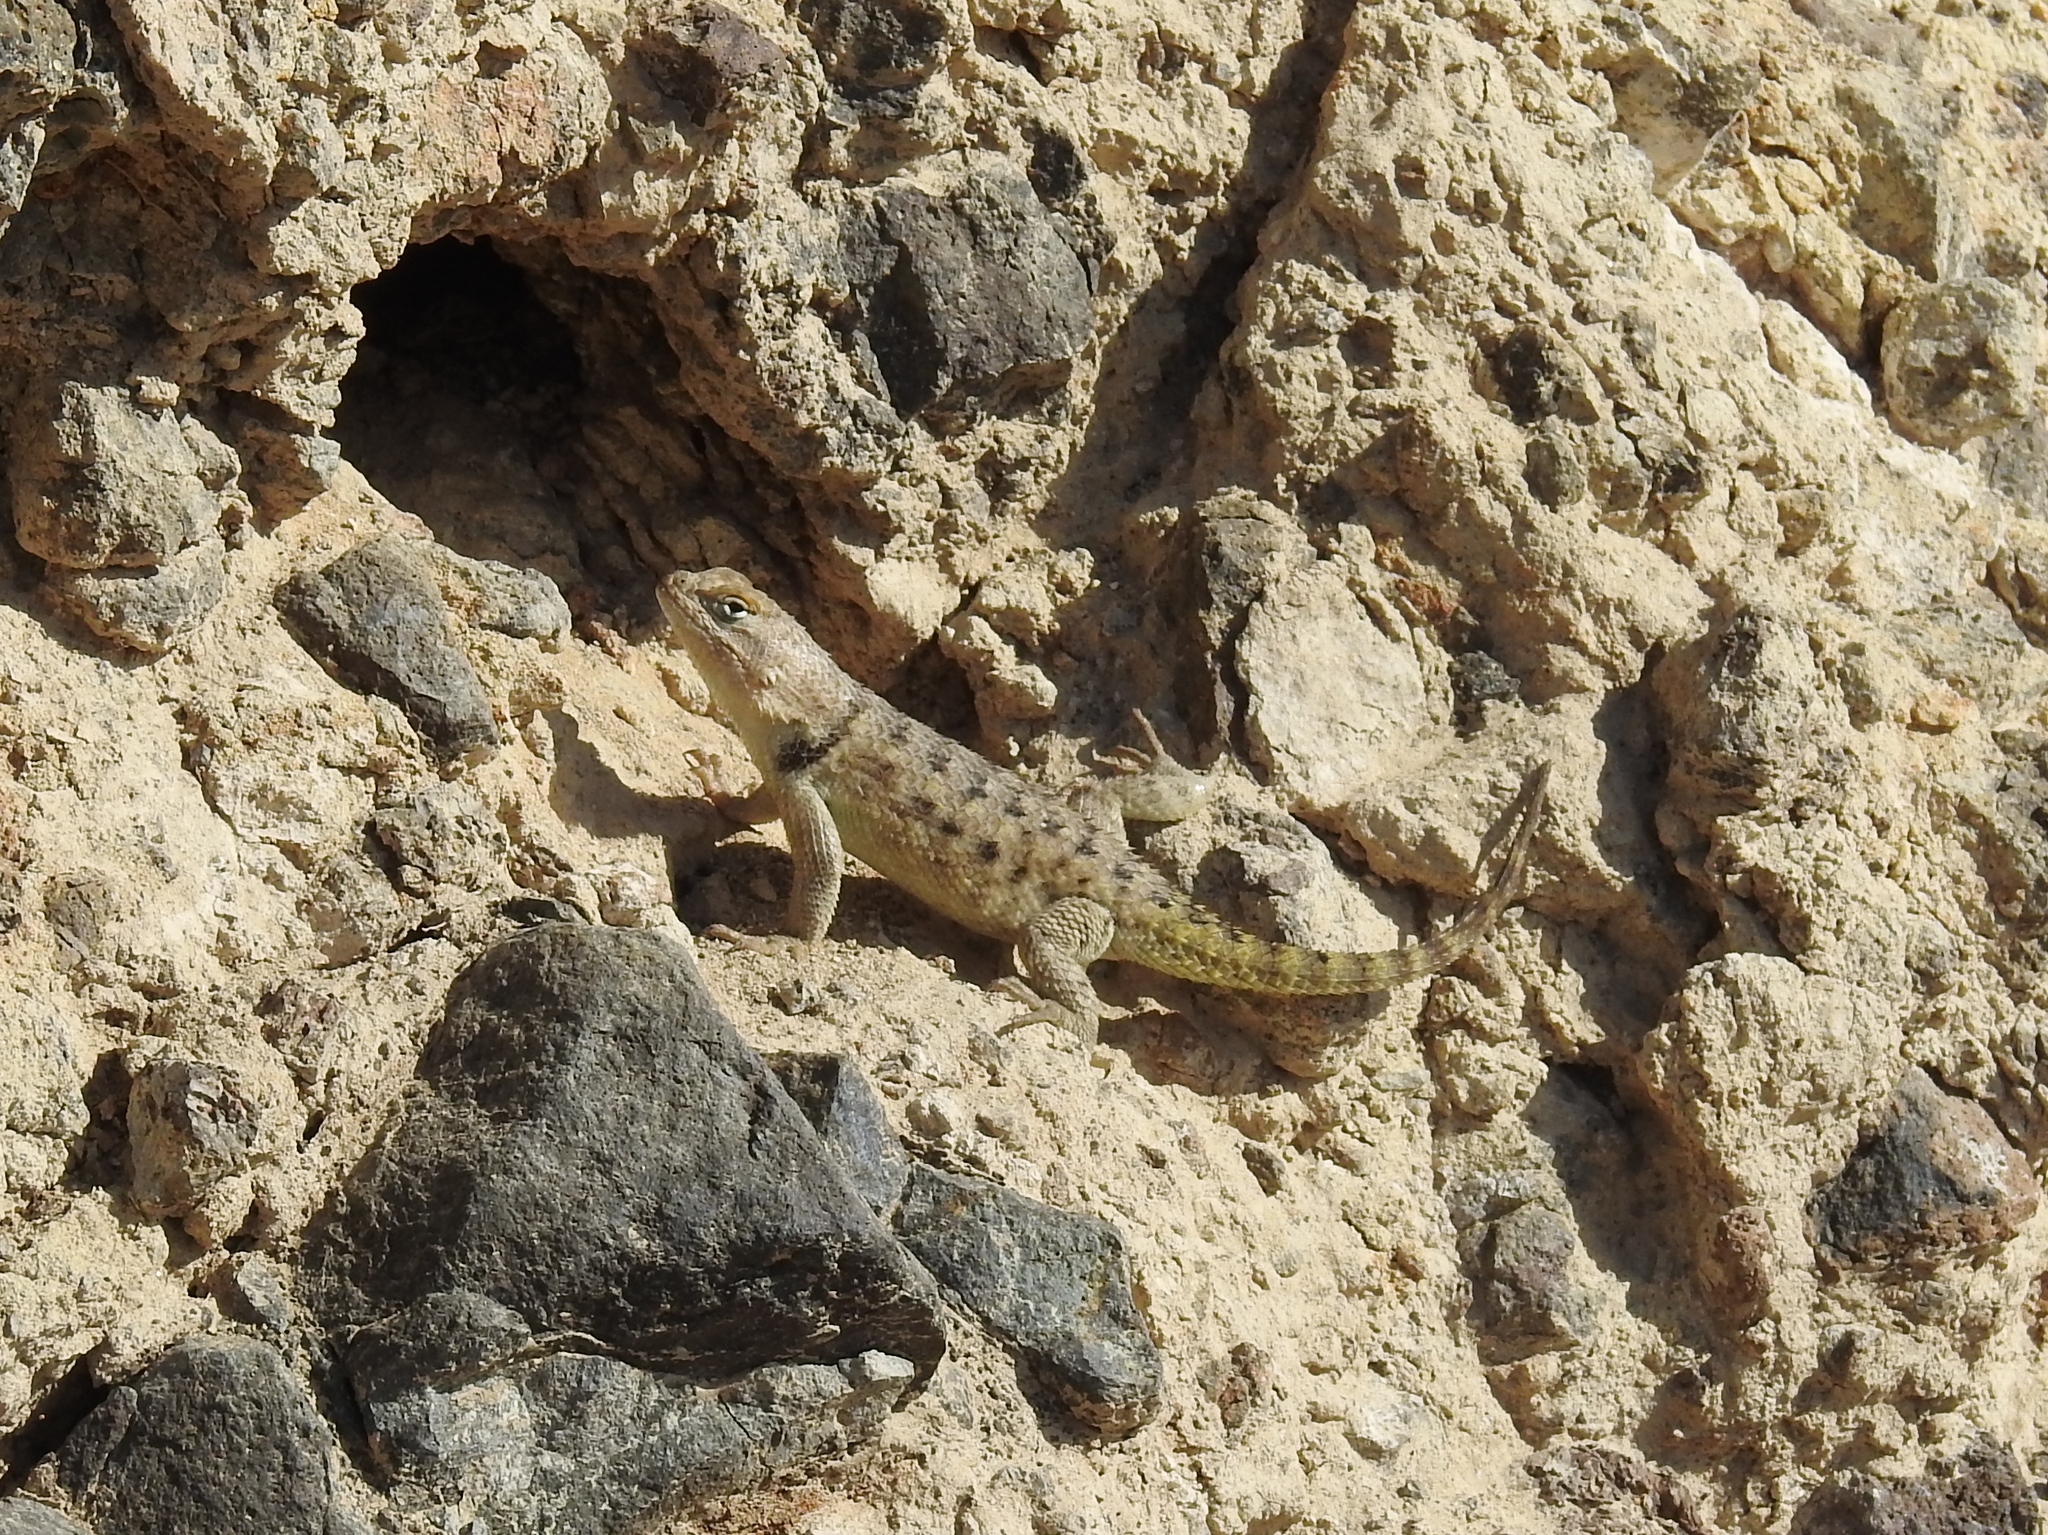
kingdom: Animalia
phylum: Chordata
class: Squamata
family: Phrynosomatidae
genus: Sceloporus
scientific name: Sceloporus uniformis
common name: Yellow-backed spiny lizard
